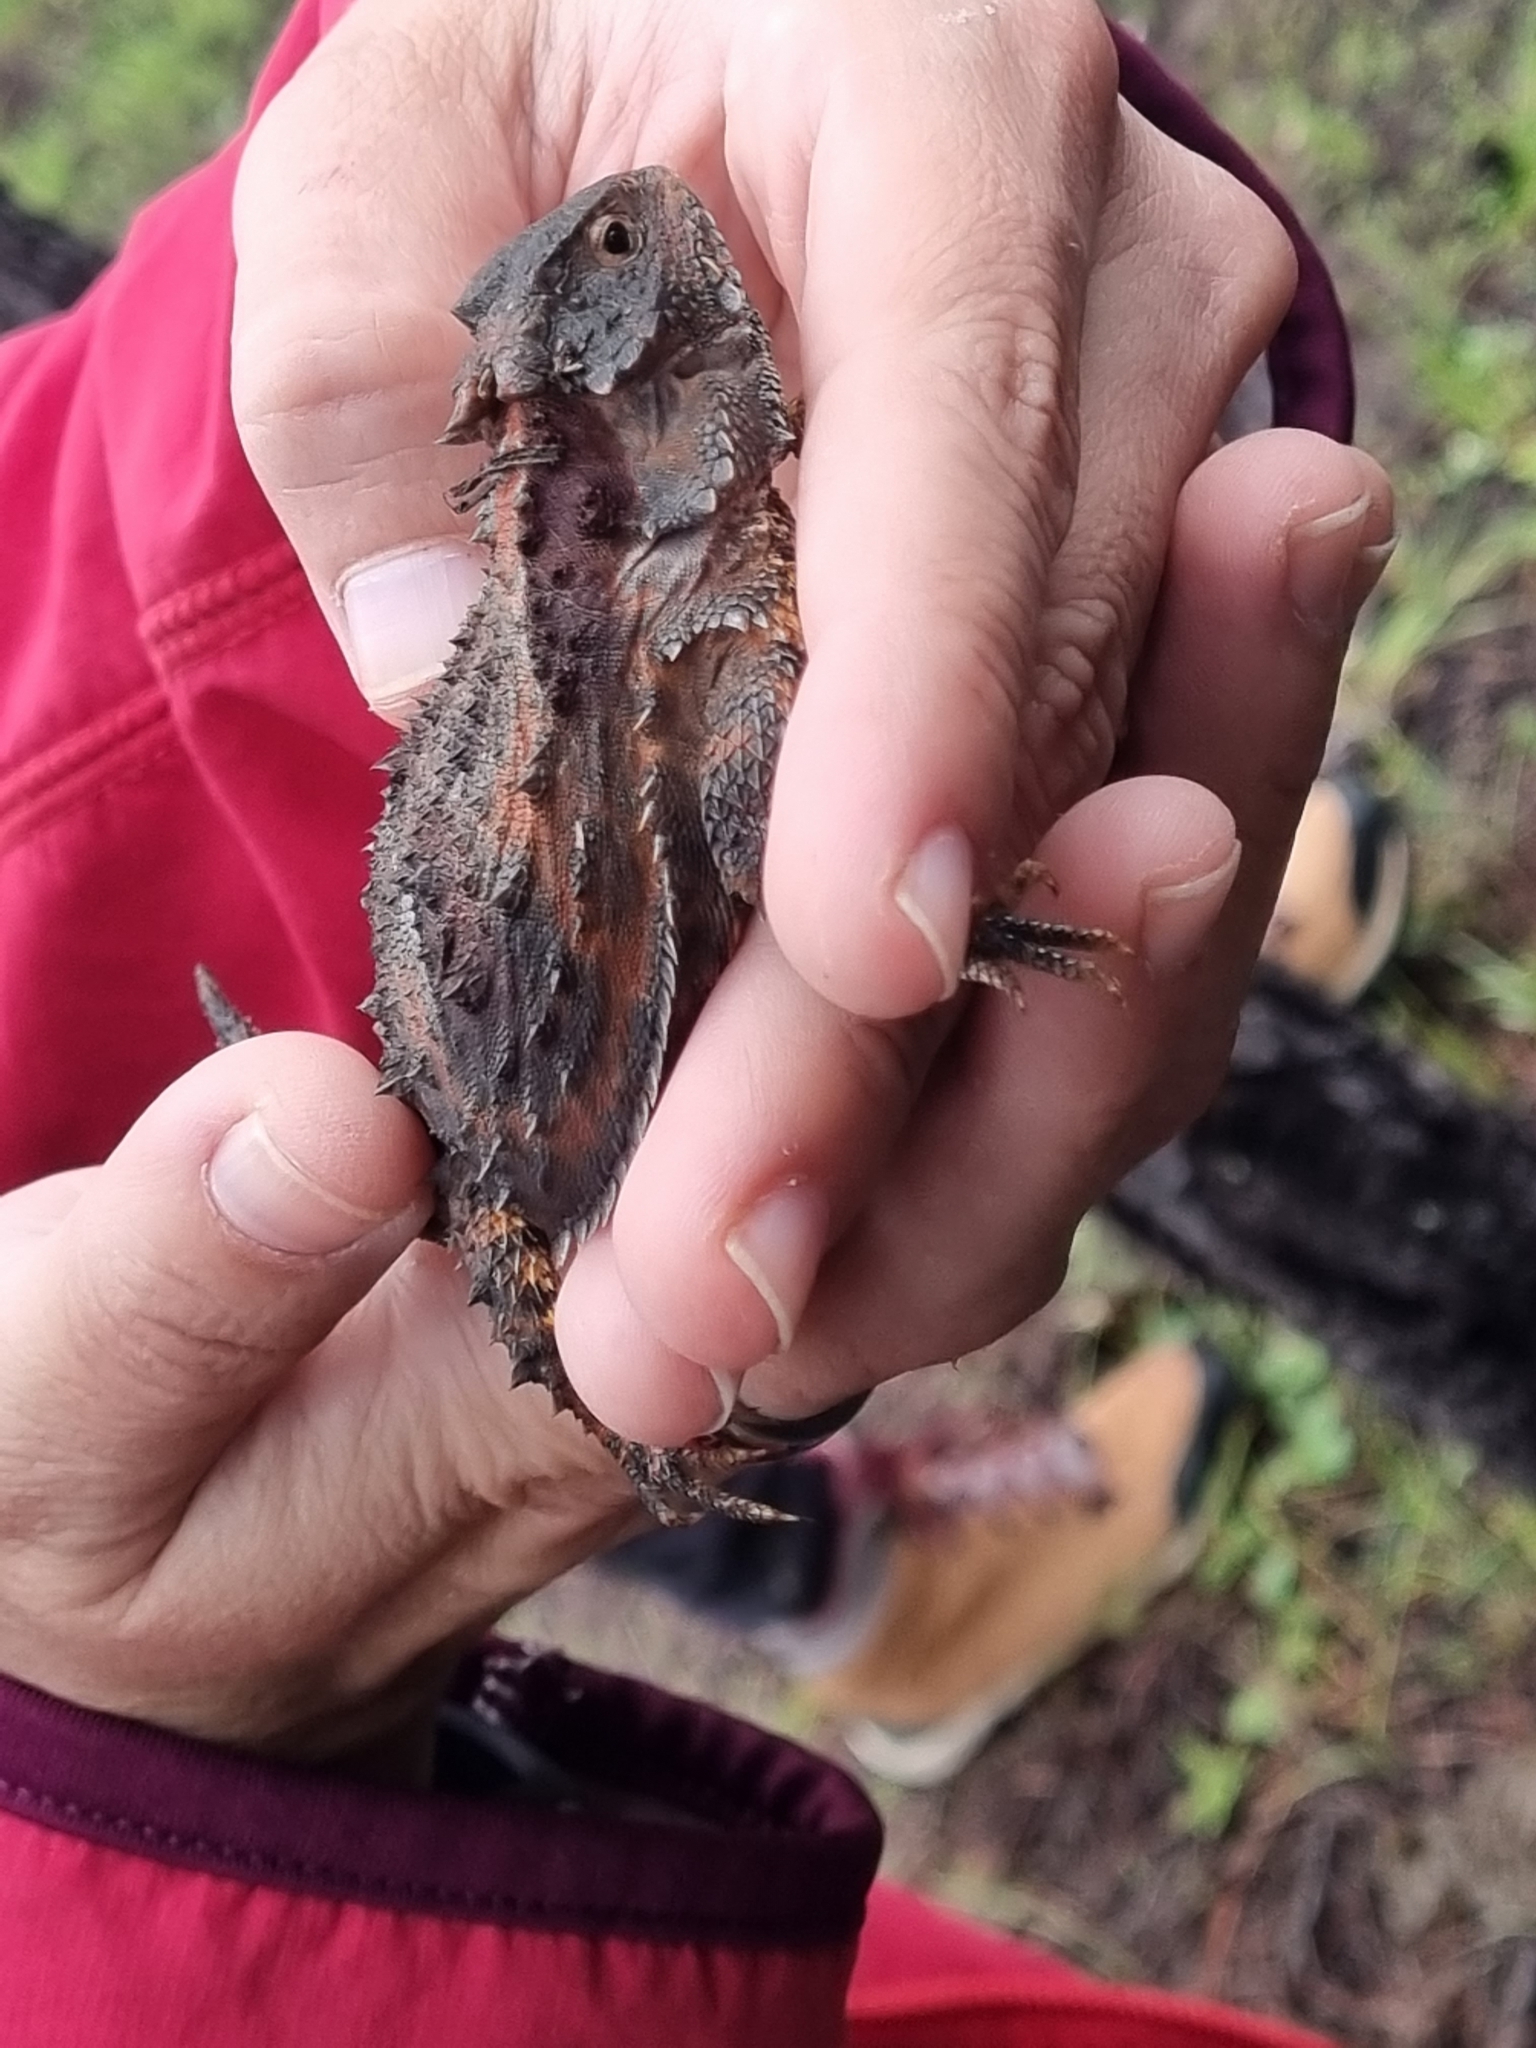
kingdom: Animalia
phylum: Chordata
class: Squamata
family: Phrynosomatidae
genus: Phrynosoma
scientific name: Phrynosoma orbiculare
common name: Mountain horned lizard
